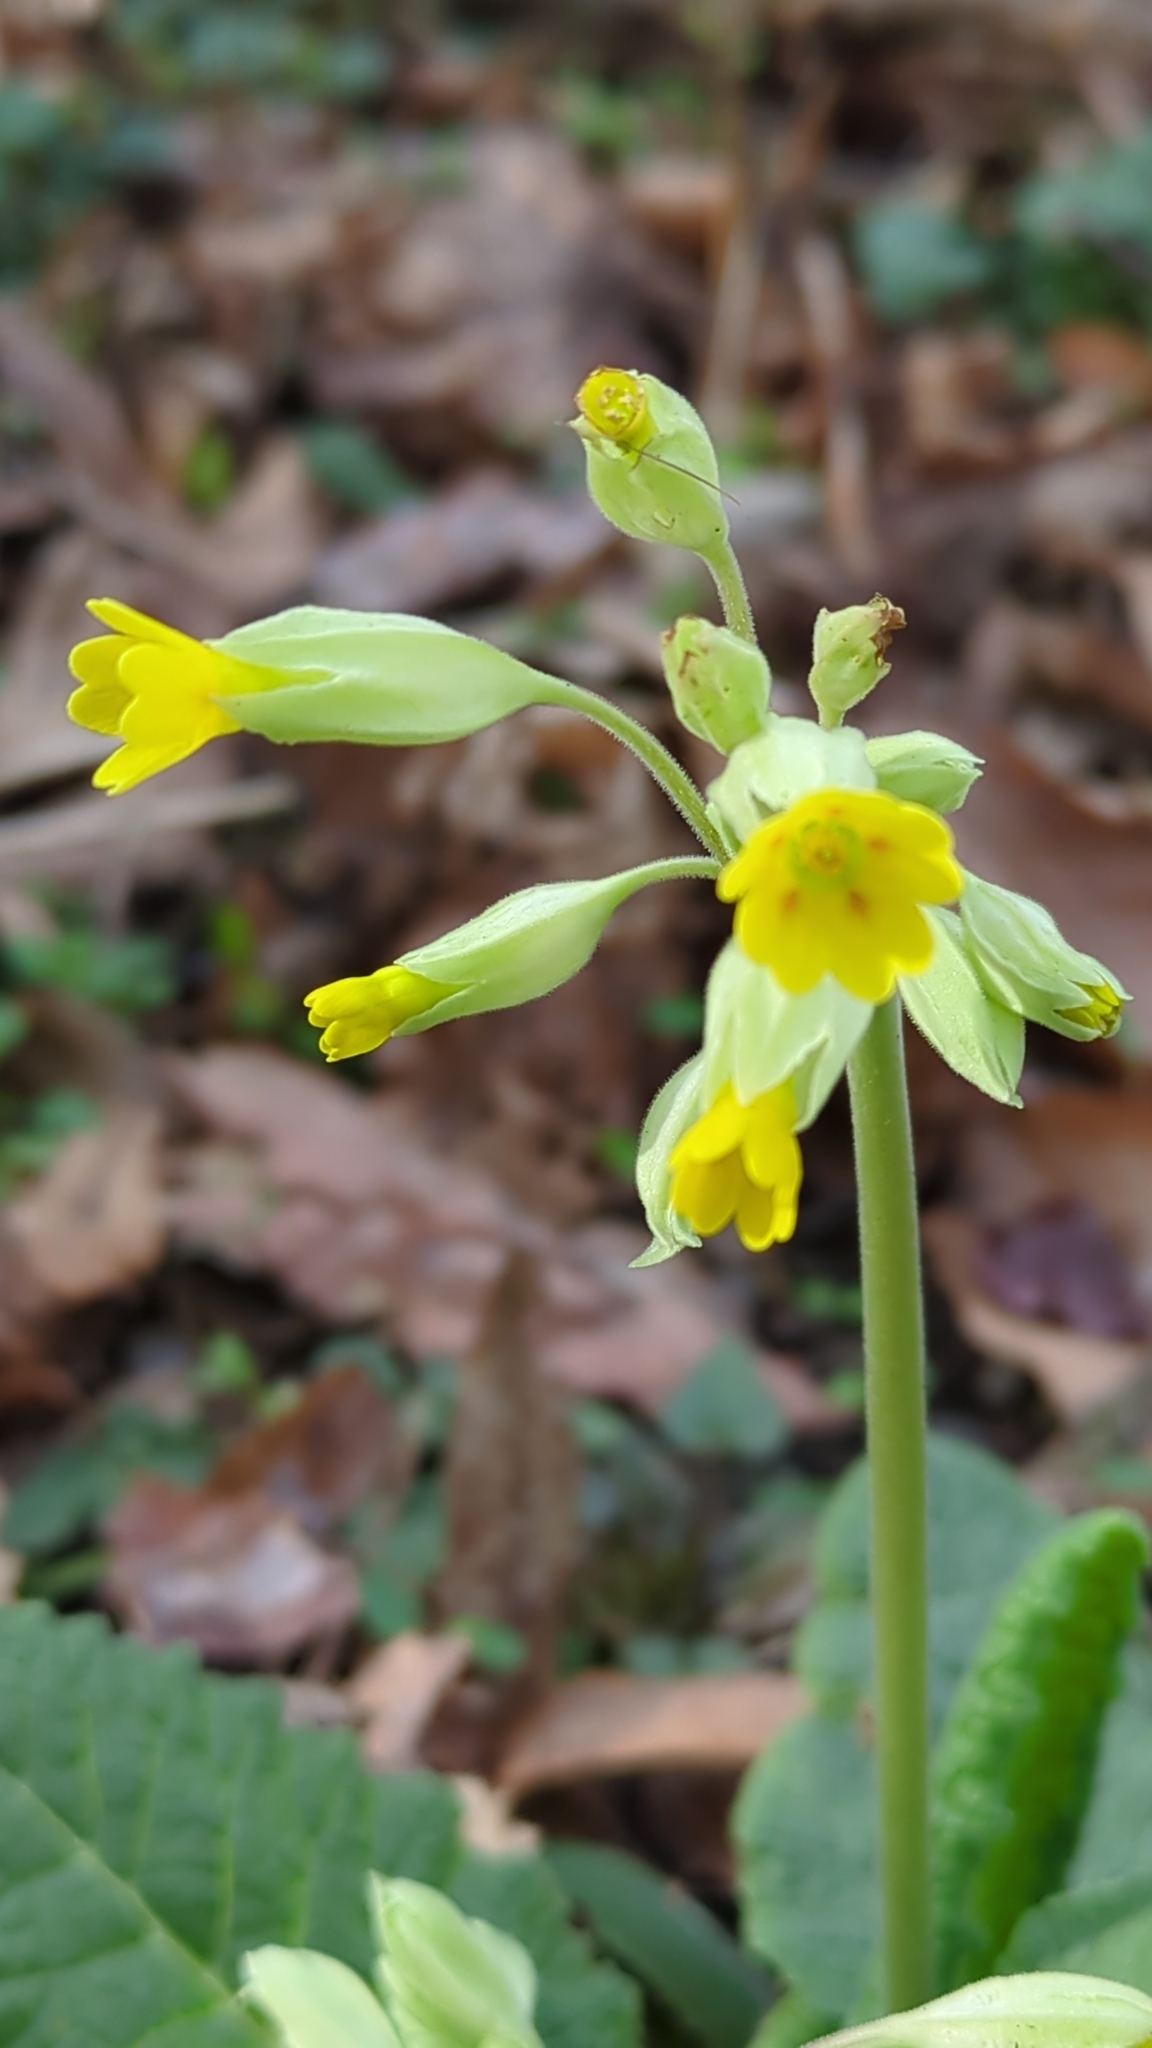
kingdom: Plantae
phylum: Tracheophyta
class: Magnoliopsida
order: Ericales
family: Primulaceae
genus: Primula
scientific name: Primula veris
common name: Cowslip
